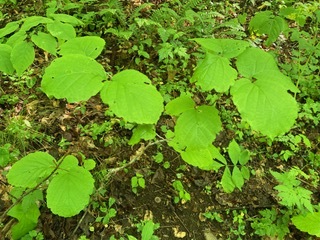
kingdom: Plantae
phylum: Tracheophyta
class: Magnoliopsida
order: Saxifragales
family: Hamamelidaceae
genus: Hamamelis
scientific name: Hamamelis virginiana
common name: Witch-hazel
